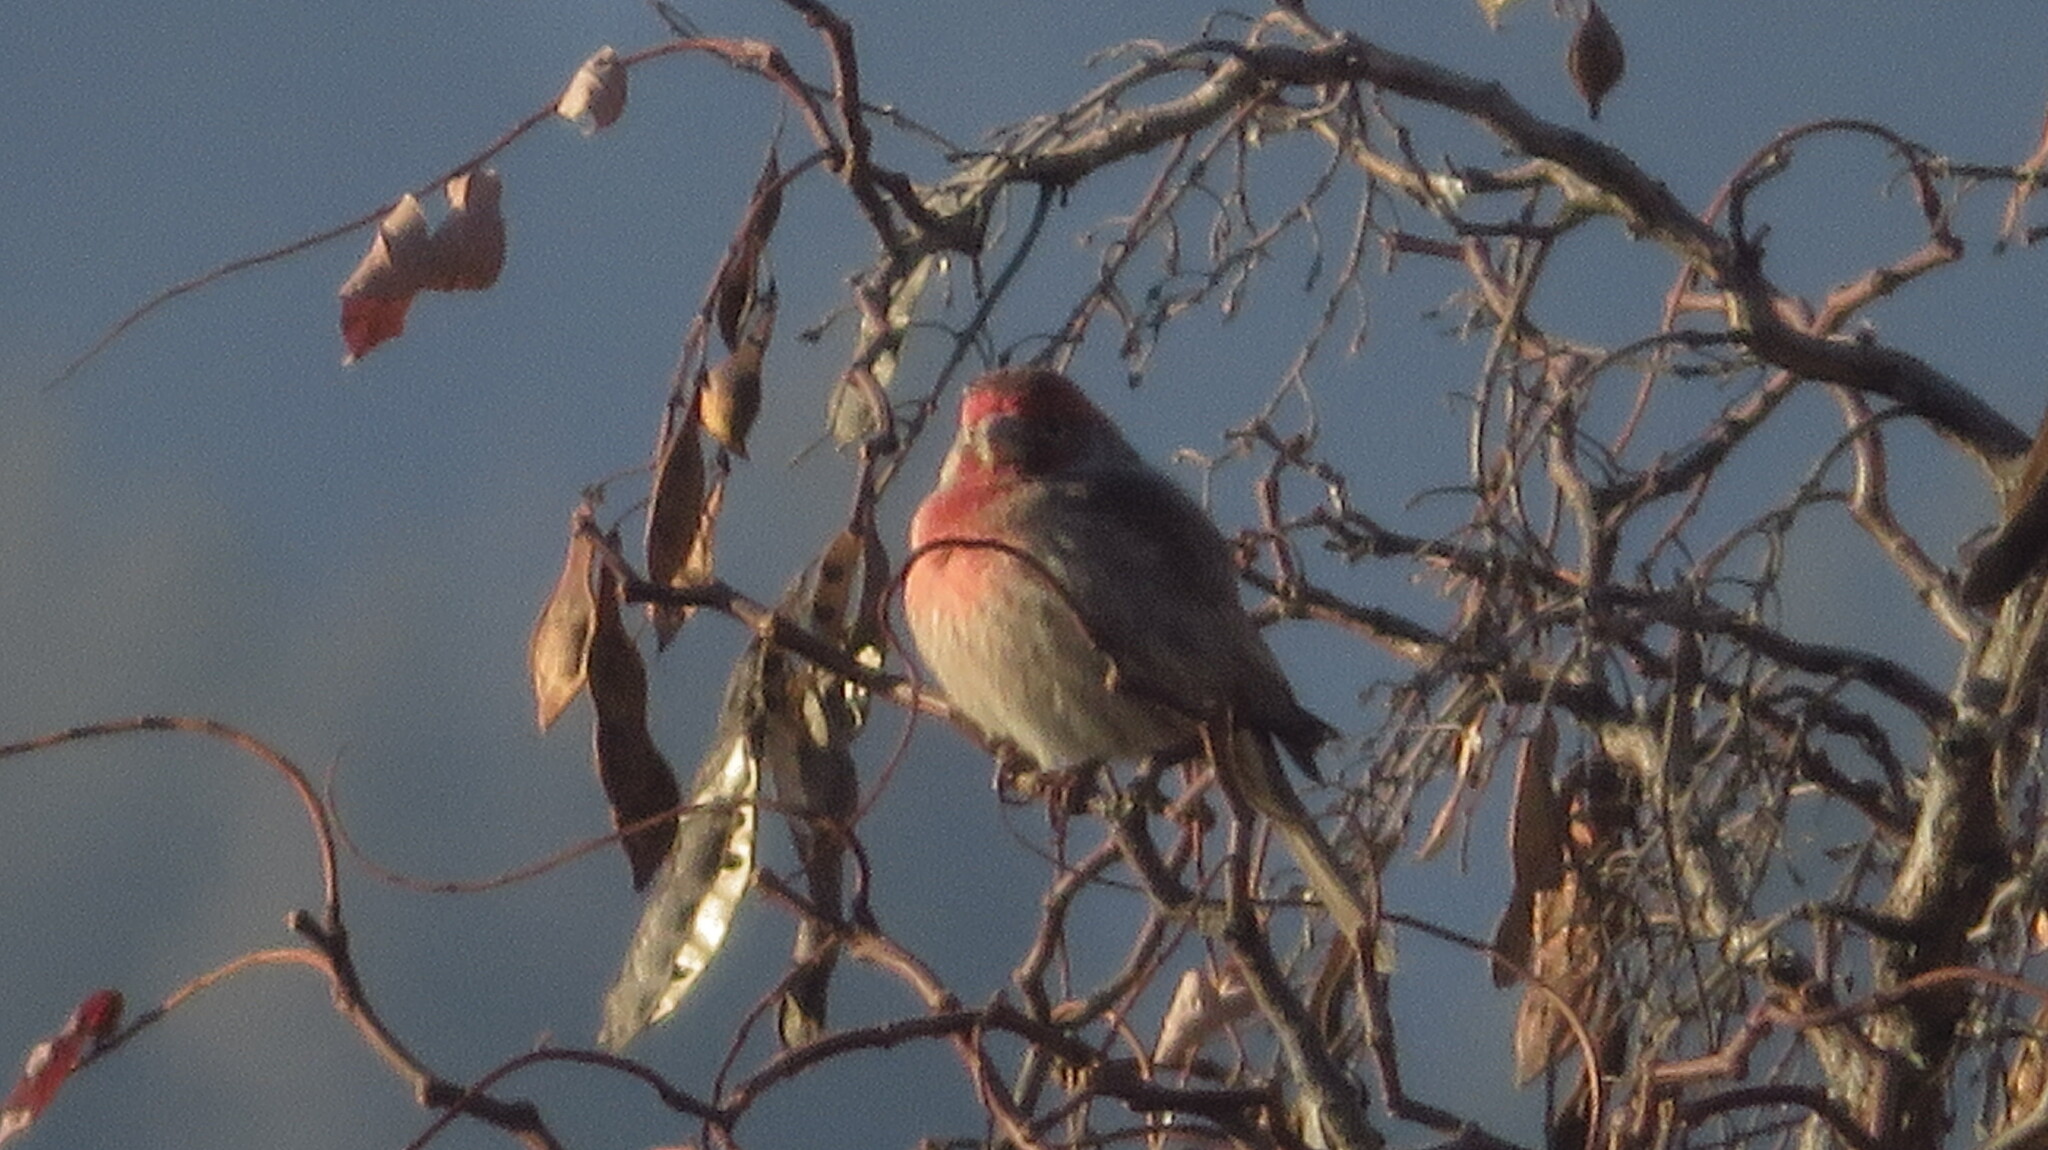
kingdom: Animalia
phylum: Chordata
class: Aves
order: Passeriformes
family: Fringillidae
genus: Haemorhous
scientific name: Haemorhous mexicanus
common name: House finch
